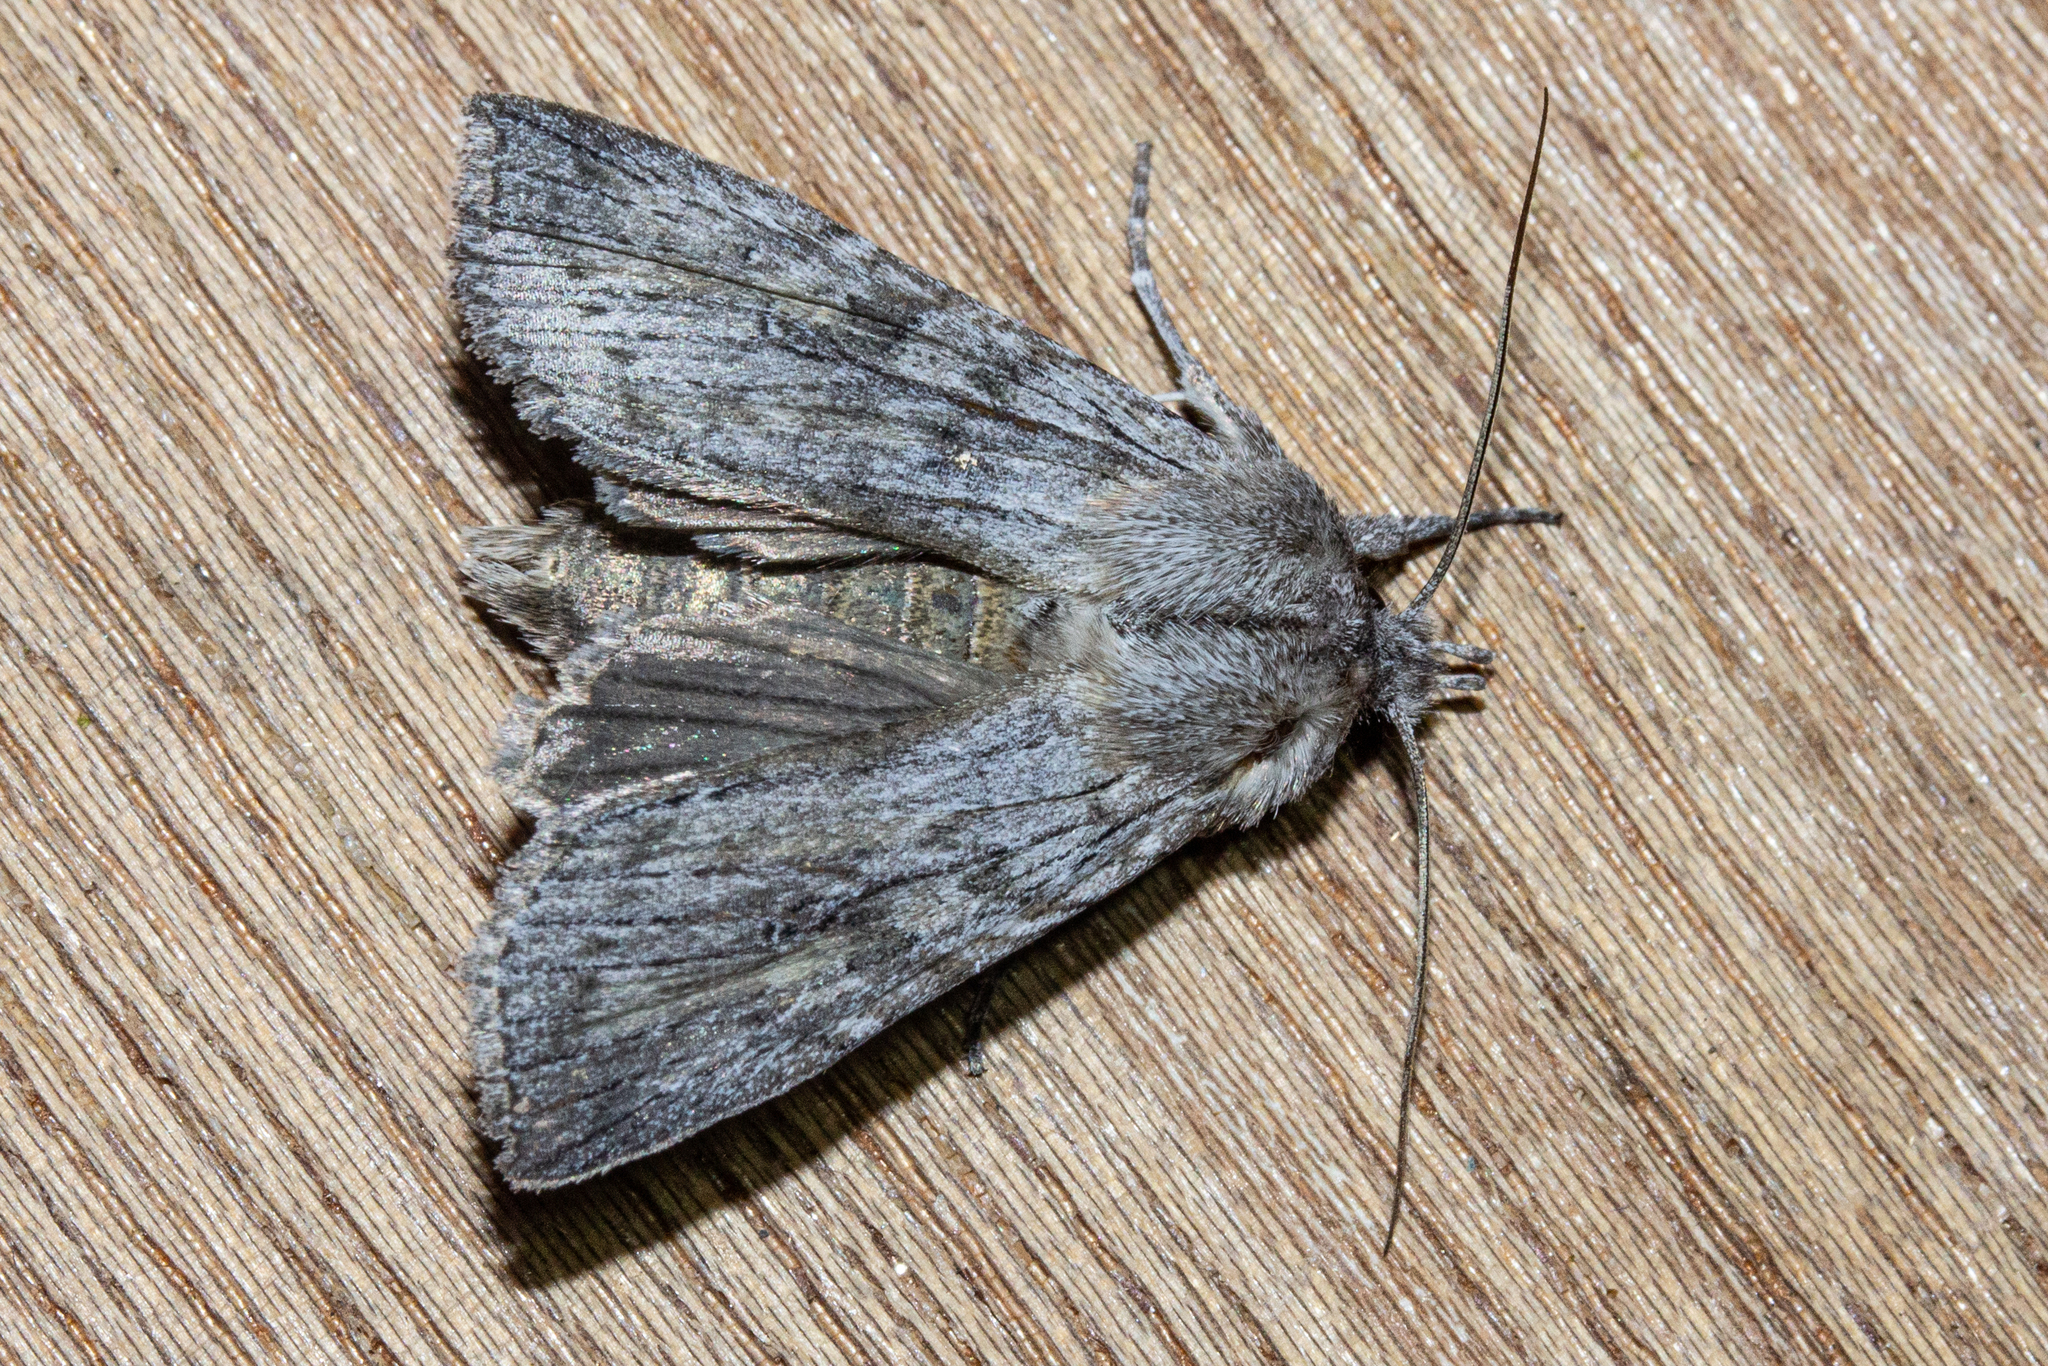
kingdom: Animalia
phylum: Arthropoda
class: Insecta
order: Lepidoptera
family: Noctuidae
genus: Physetica
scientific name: Physetica phricias
